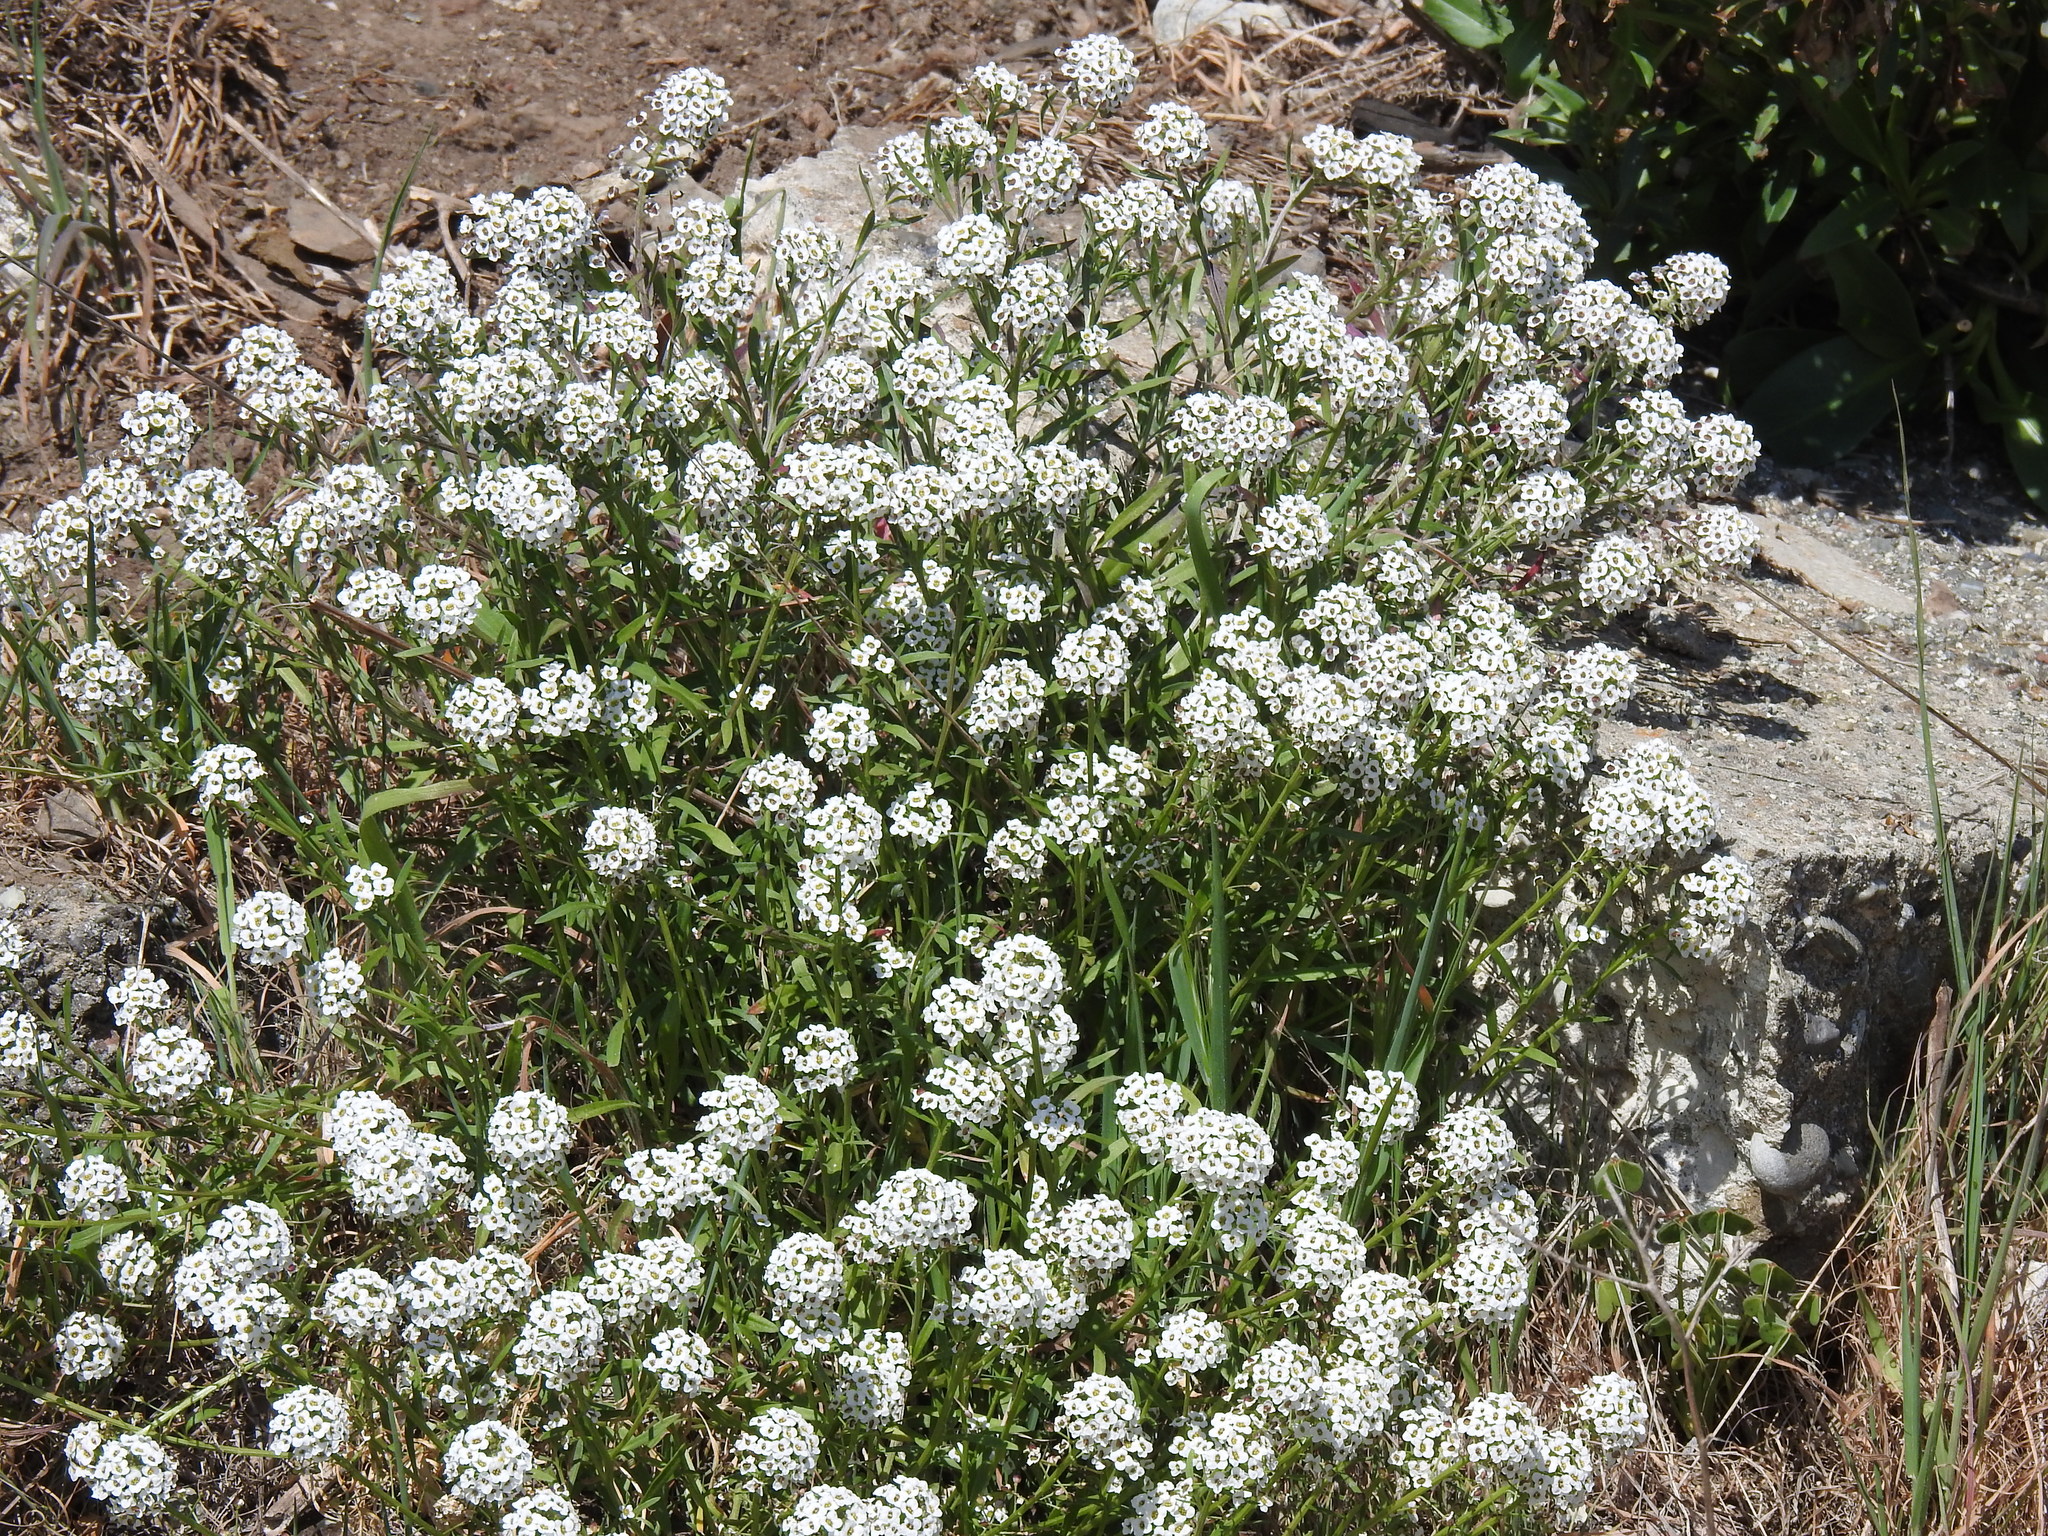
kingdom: Plantae
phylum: Tracheophyta
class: Magnoliopsida
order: Brassicales
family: Brassicaceae
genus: Lobularia
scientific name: Lobularia maritima
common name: Sweet alison
